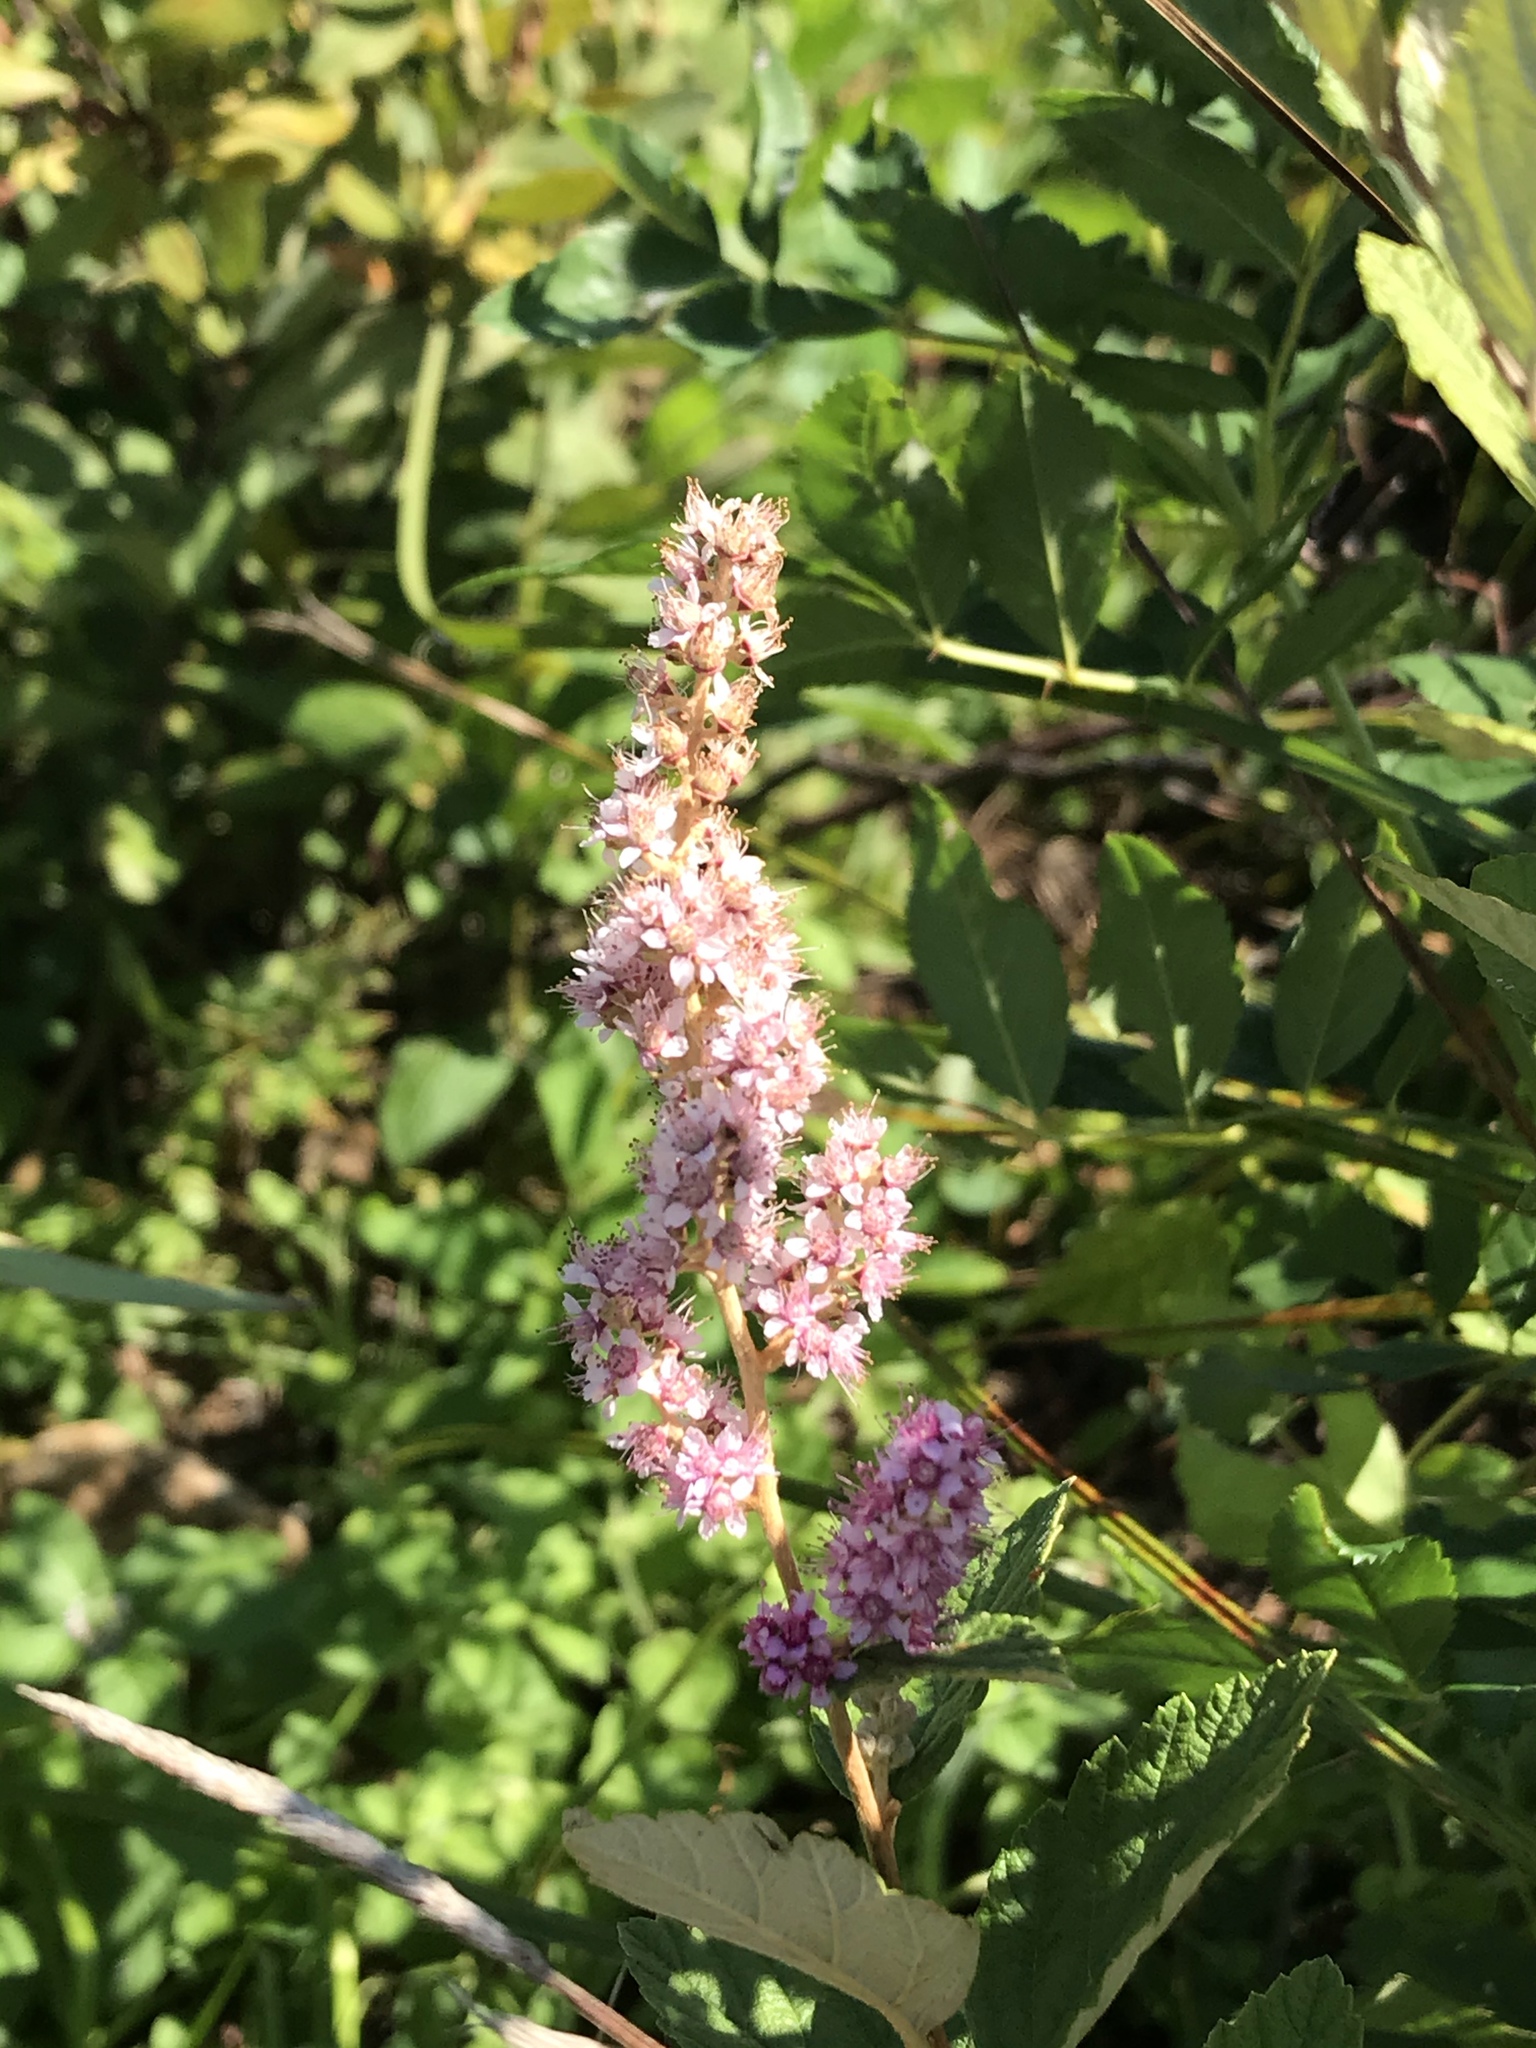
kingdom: Plantae
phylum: Tracheophyta
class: Magnoliopsida
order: Rosales
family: Rosaceae
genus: Spiraea
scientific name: Spiraea tomentosa
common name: Hardhack
